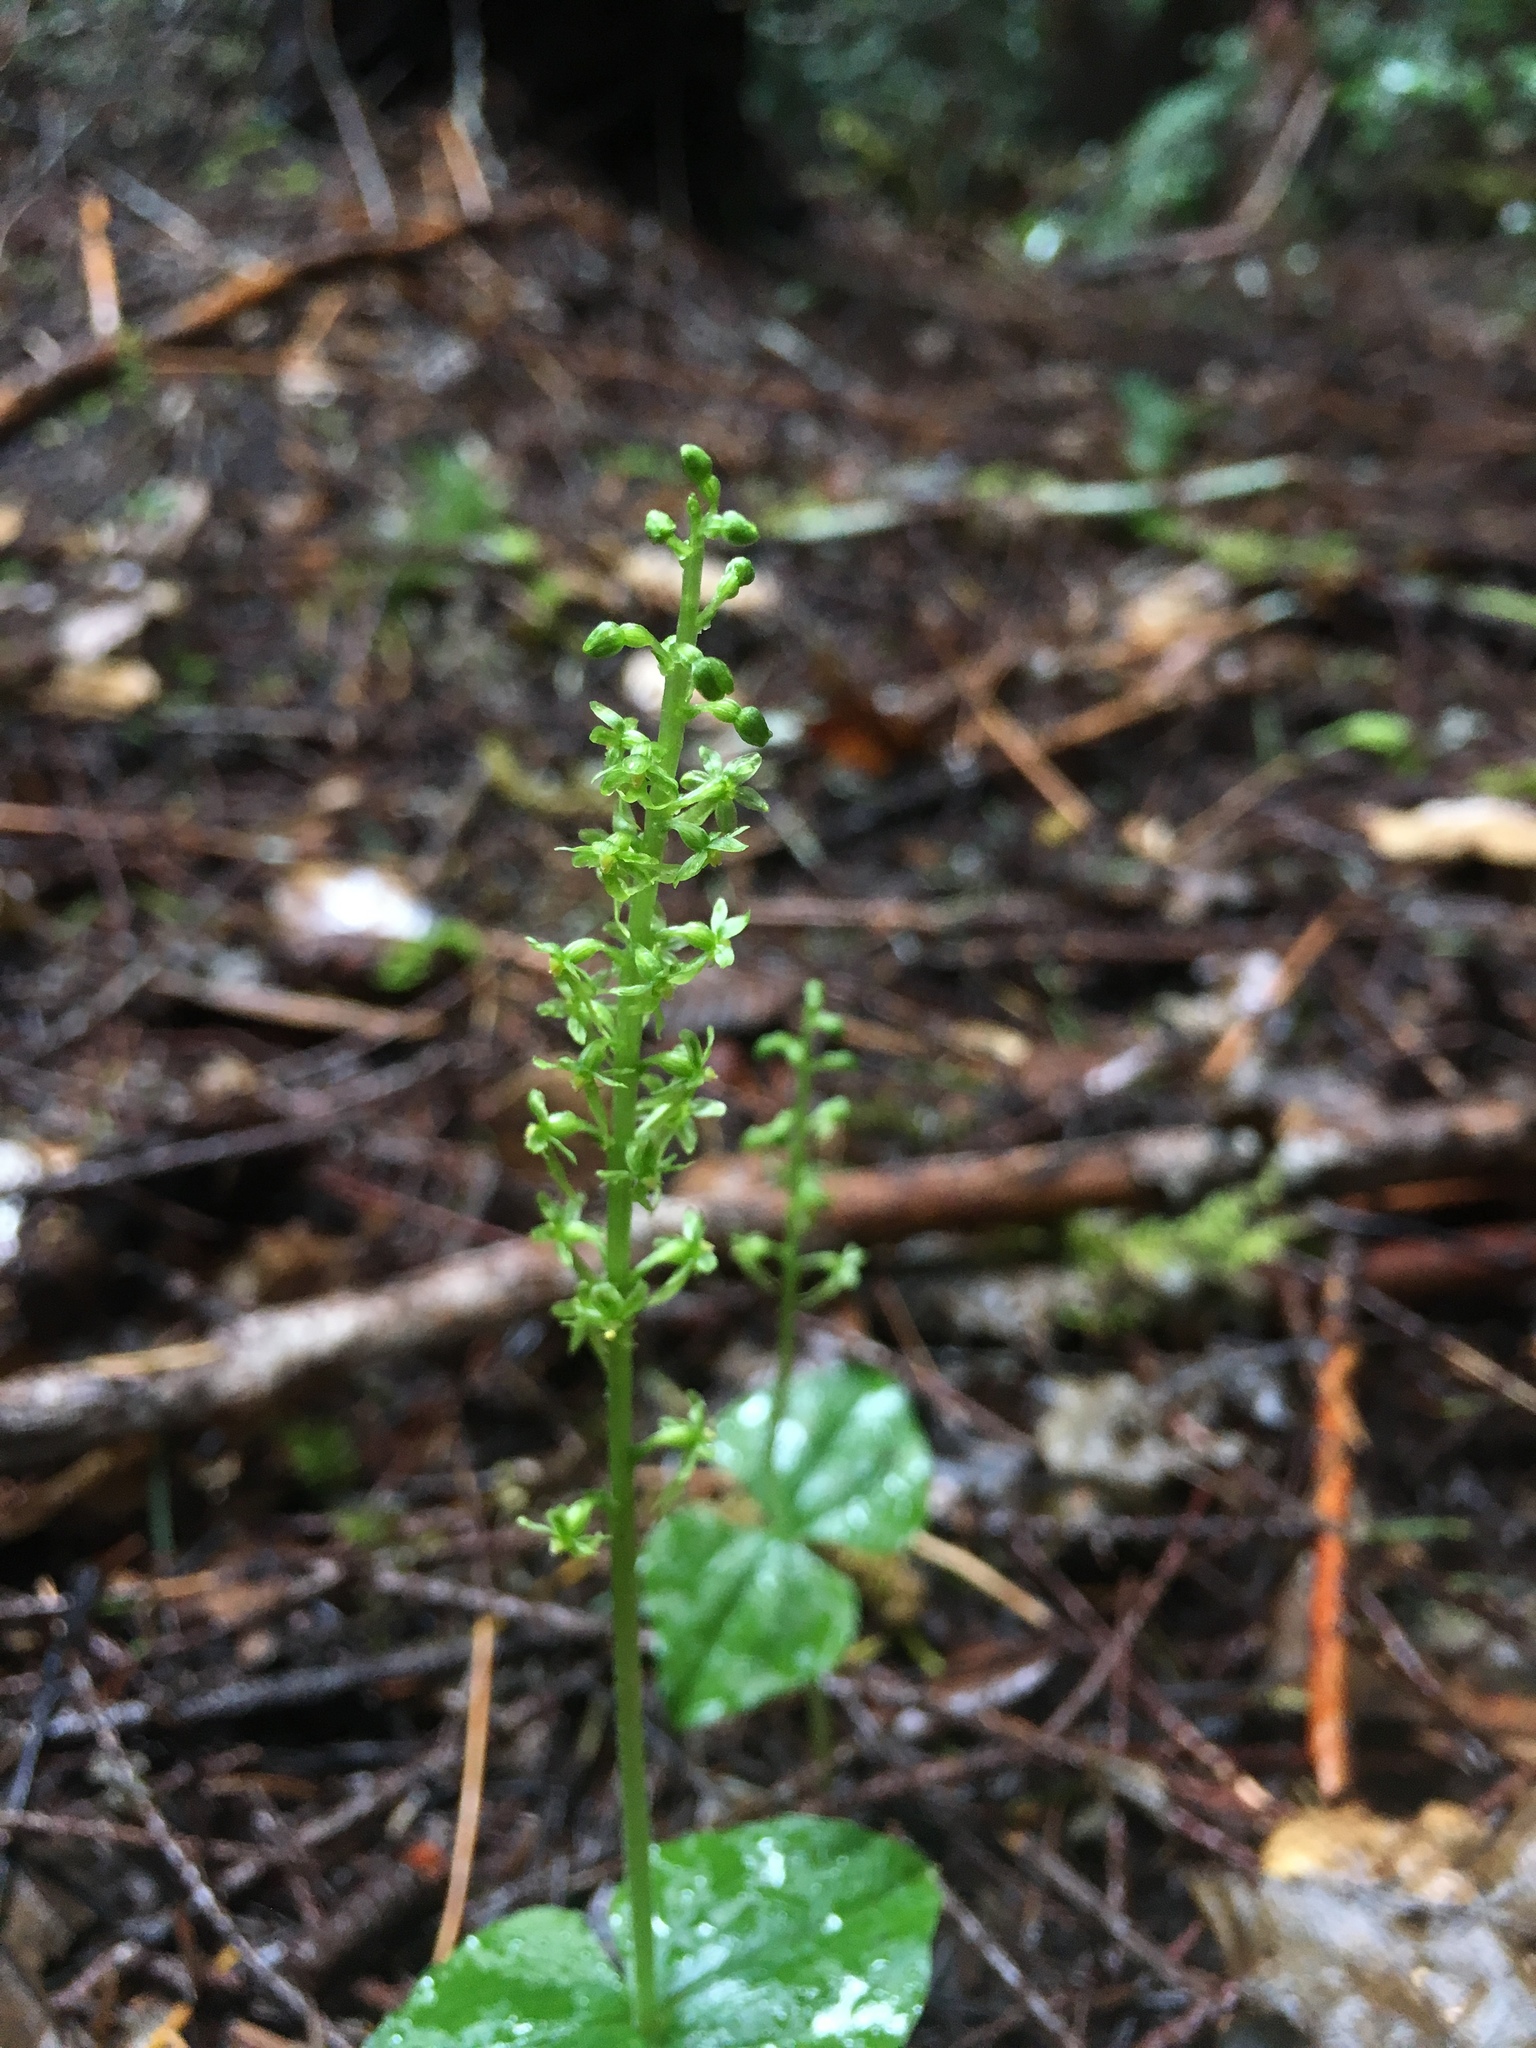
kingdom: Plantae
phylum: Tracheophyta
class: Liliopsida
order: Asparagales
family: Orchidaceae
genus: Neottia
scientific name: Neottia cordata
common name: Lesser twayblade
